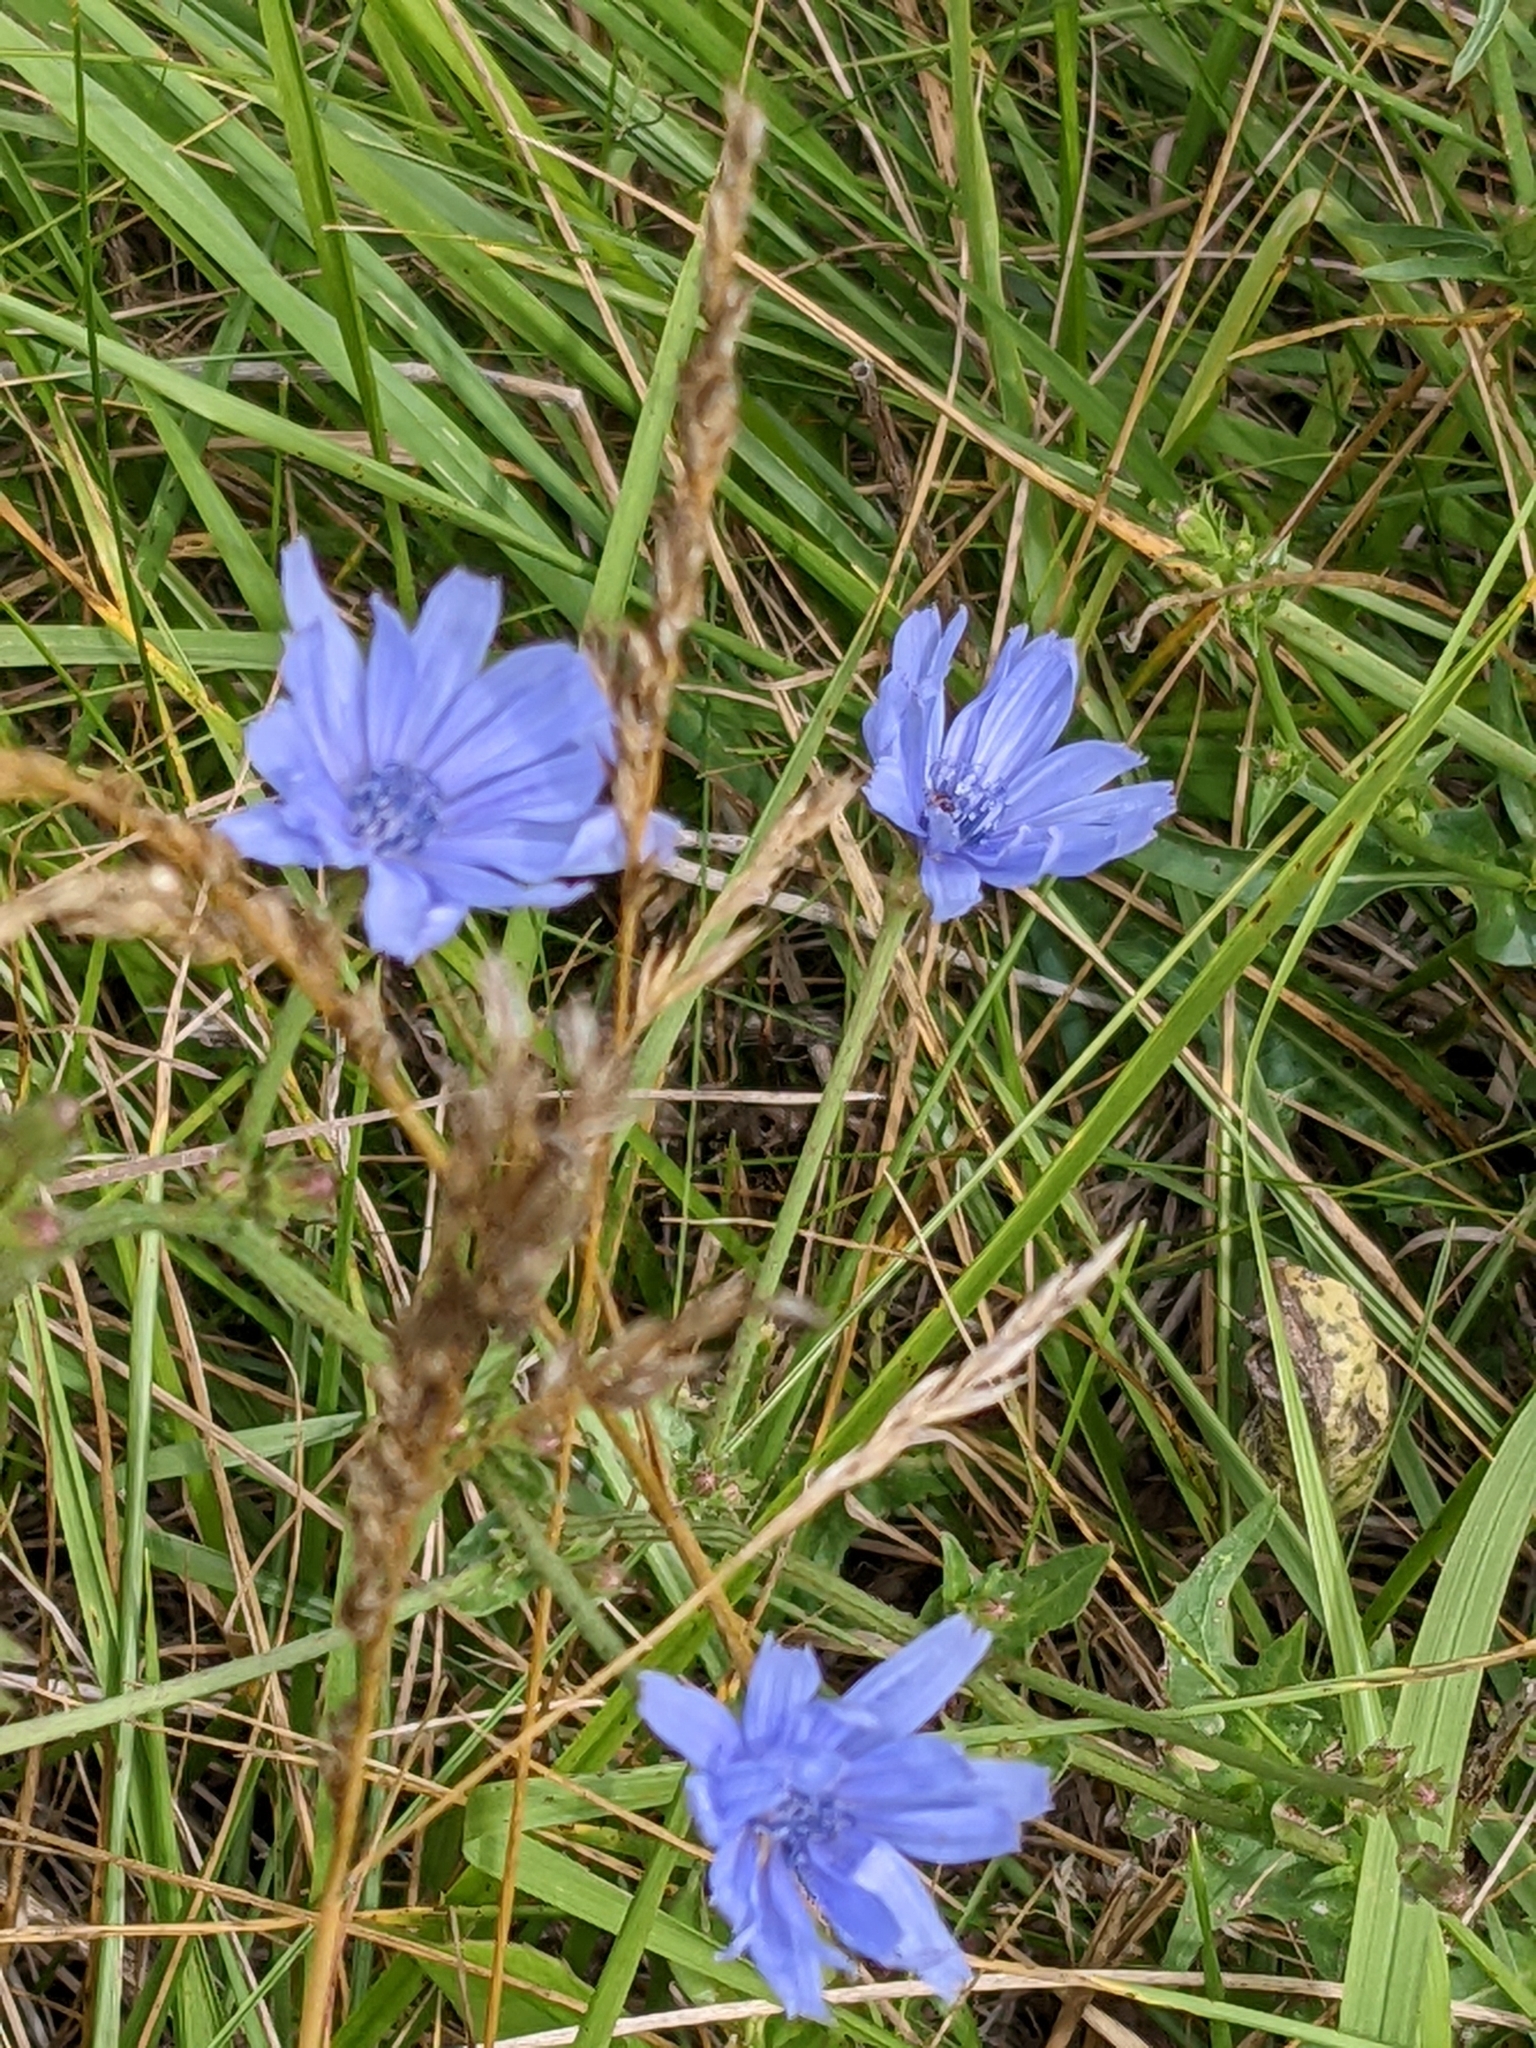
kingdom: Plantae
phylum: Tracheophyta
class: Magnoliopsida
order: Asterales
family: Asteraceae
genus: Cichorium
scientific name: Cichorium intybus
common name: Chicory
